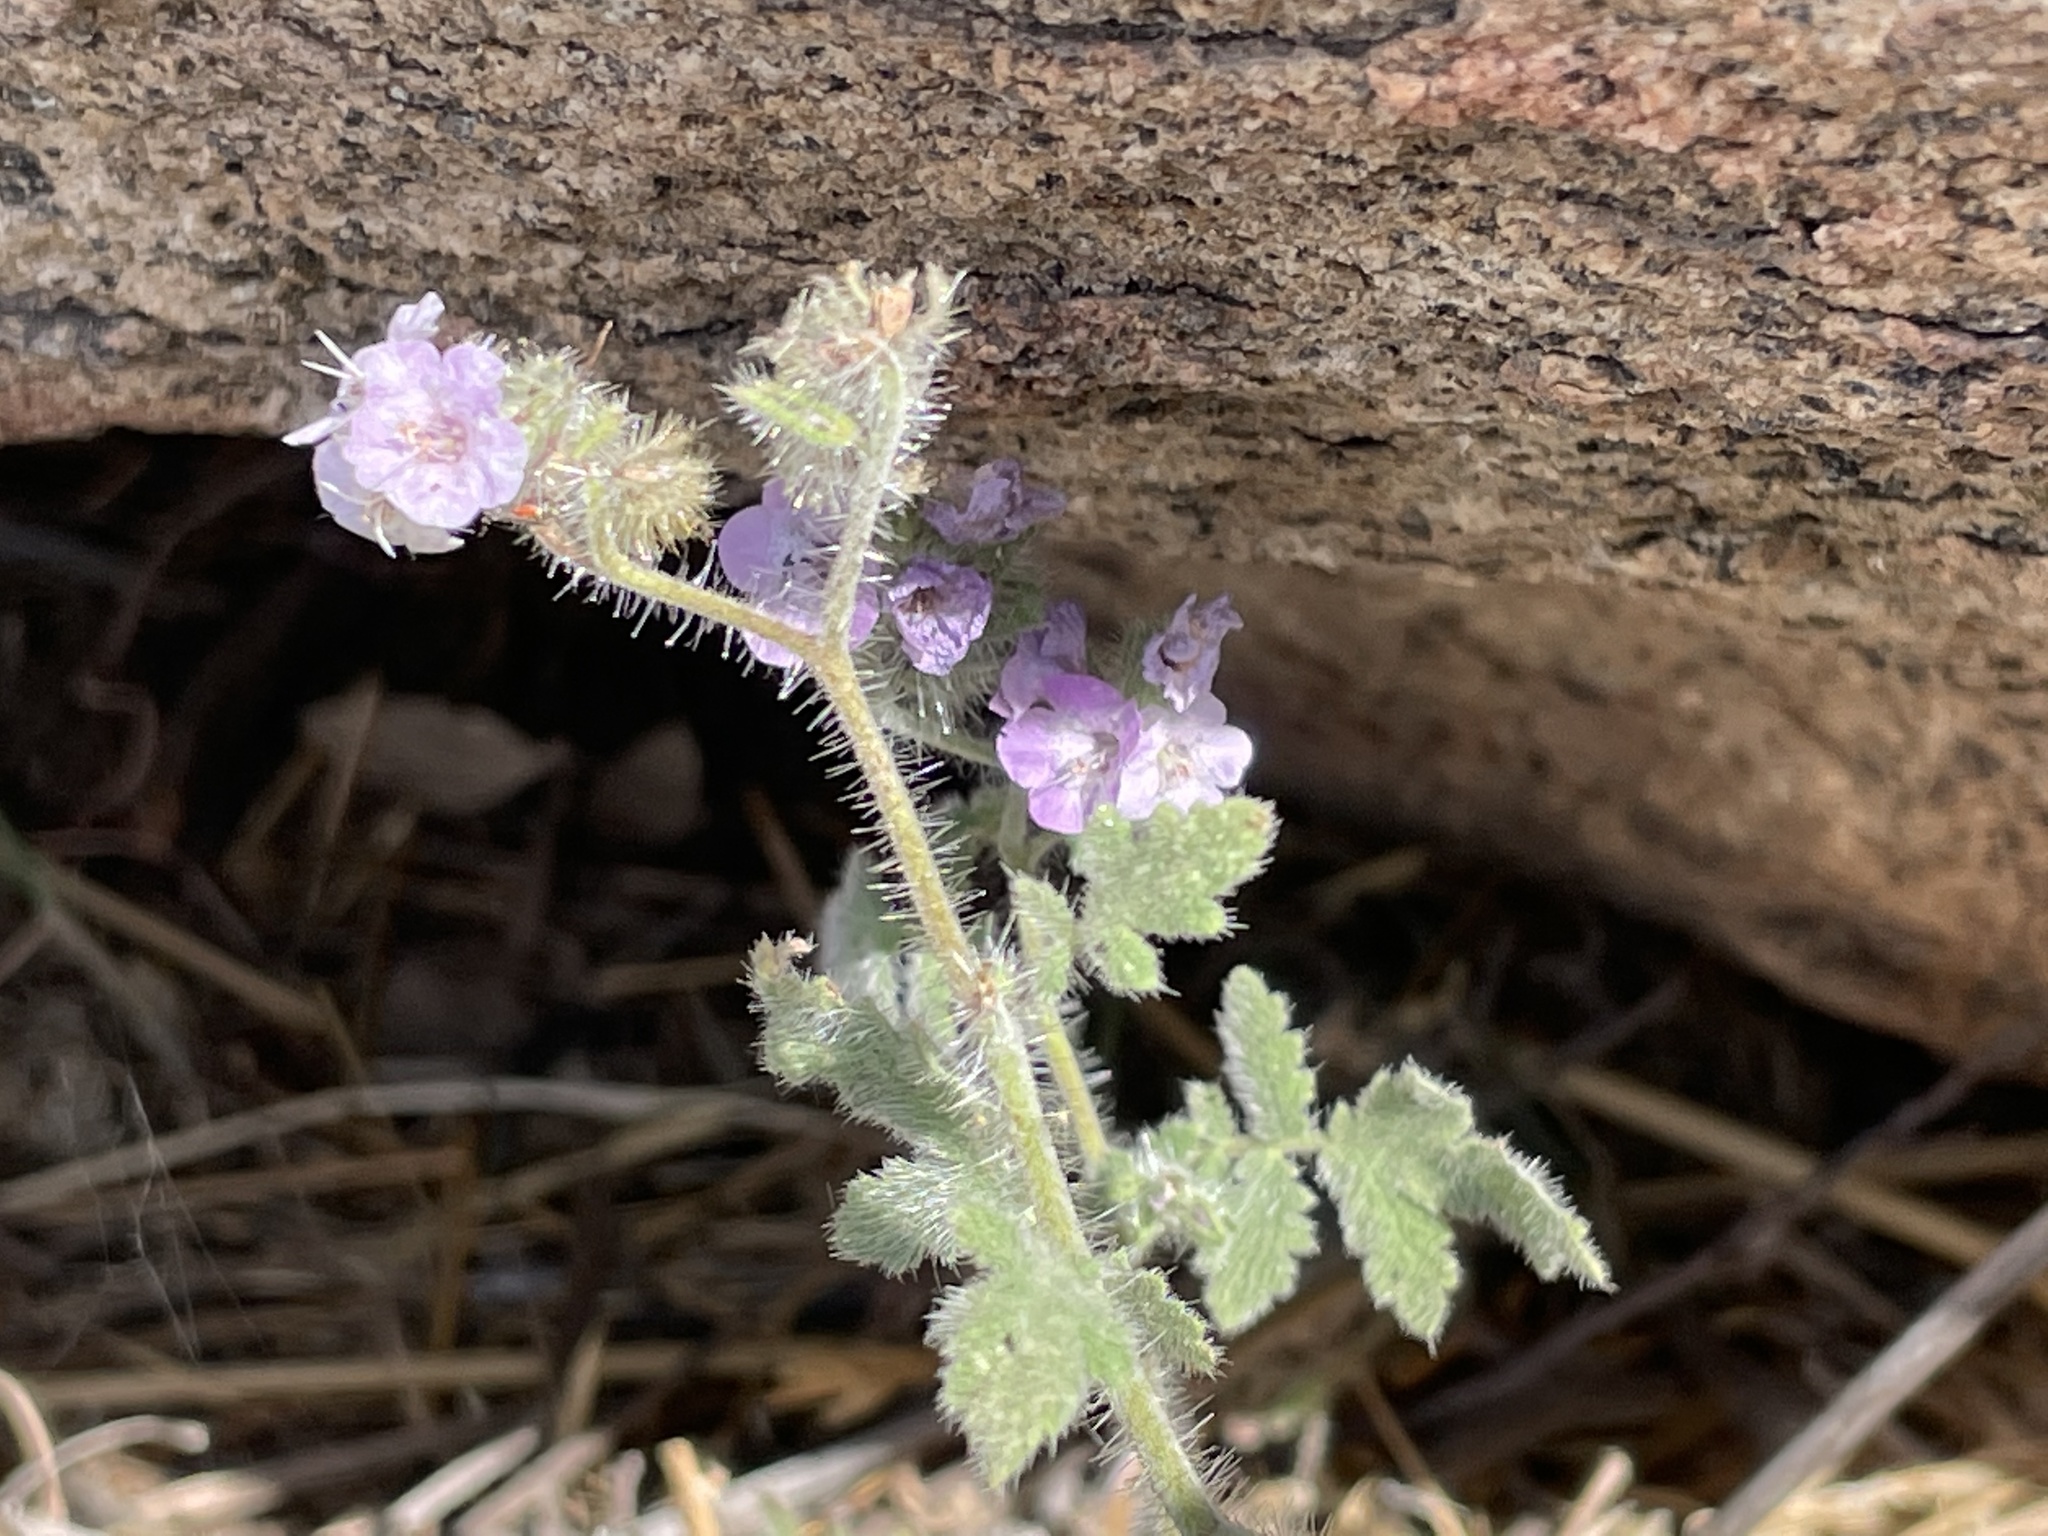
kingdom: Plantae
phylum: Tracheophyta
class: Magnoliopsida
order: Boraginales
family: Hydrophyllaceae
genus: Phacelia
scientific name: Phacelia cicutaria
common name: Caterpillar phacelia
